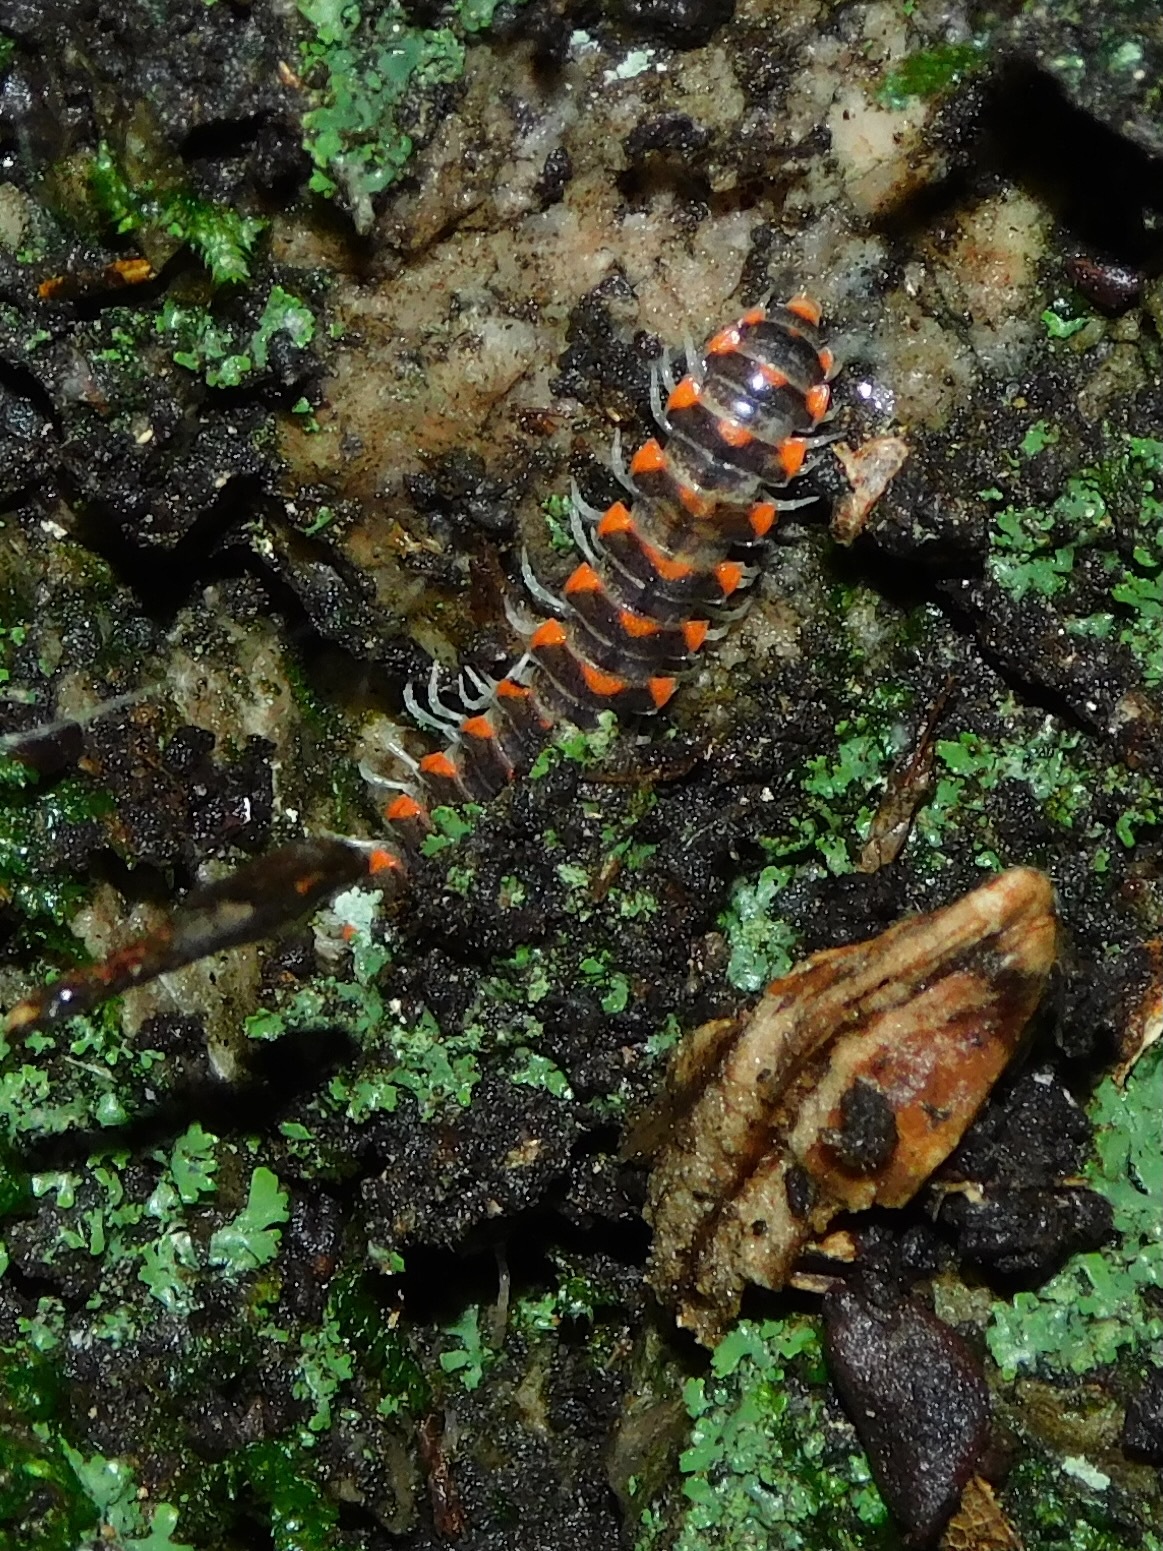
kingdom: Animalia
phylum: Arthropoda
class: Diplopoda
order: Polydesmida
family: Xystodesmidae
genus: Euryurus
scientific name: Euryurus carolinensis
